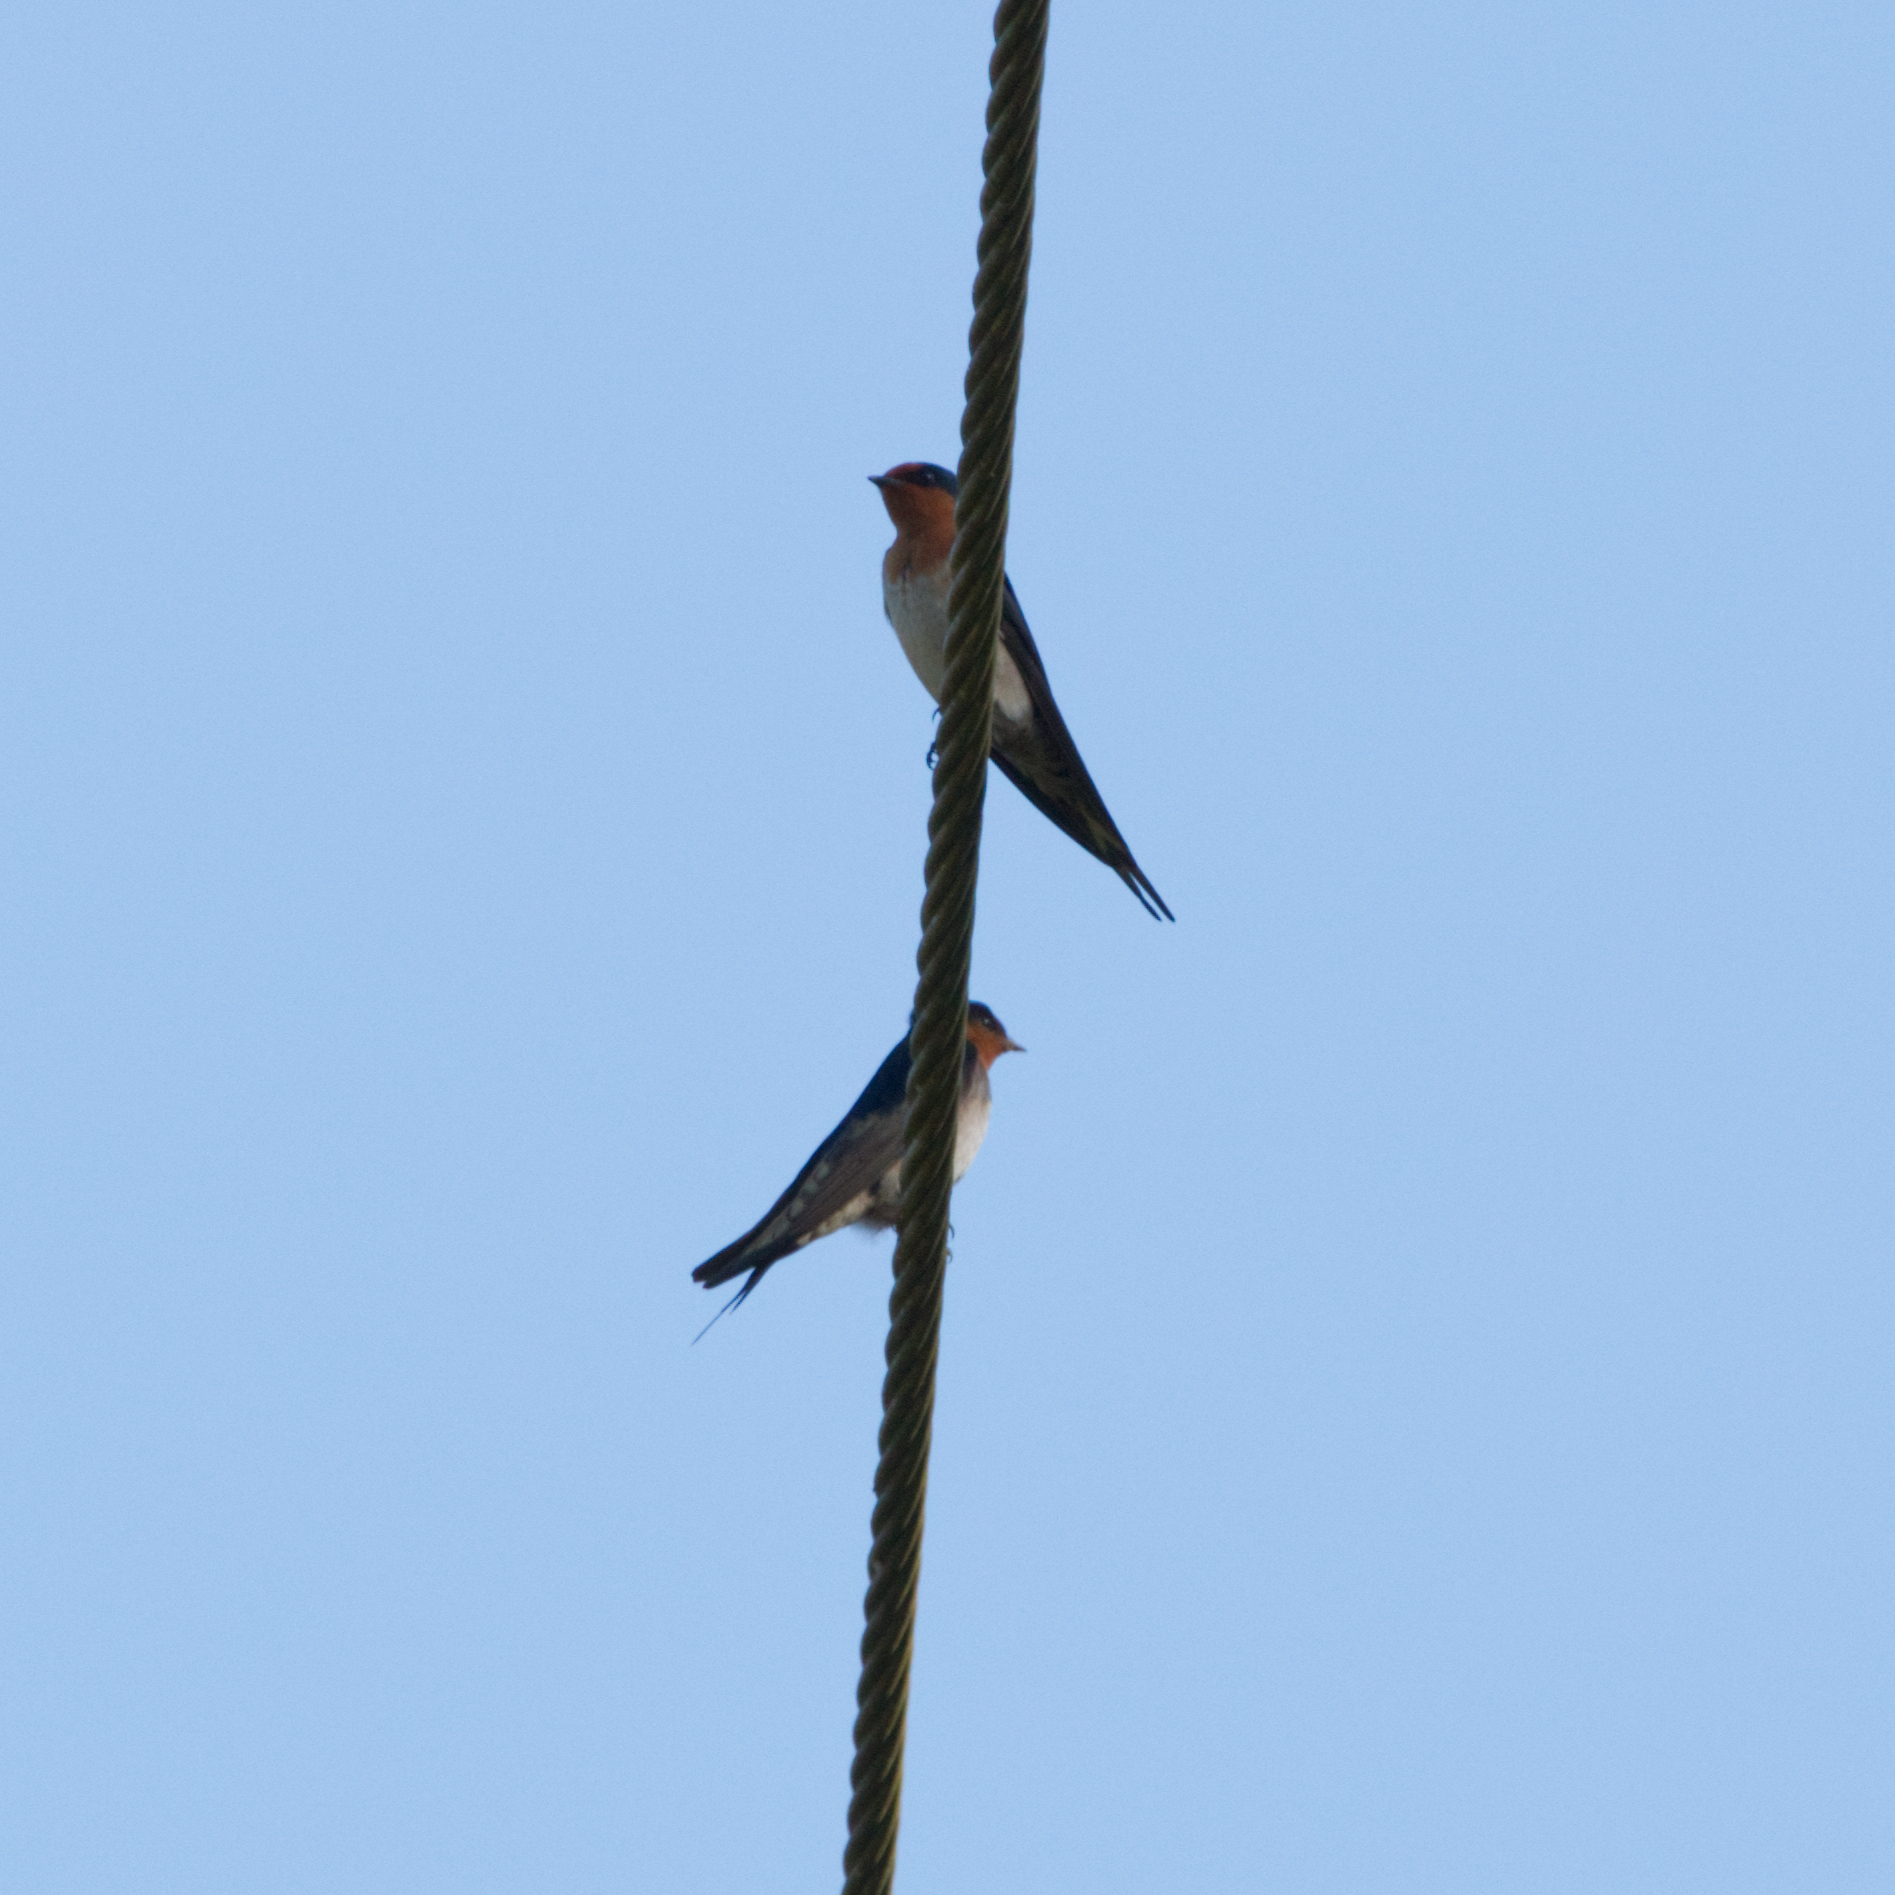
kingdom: Animalia
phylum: Chordata
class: Aves
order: Passeriformes
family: Hirundinidae
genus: Hirundo
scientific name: Hirundo neoxena
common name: Welcome swallow
